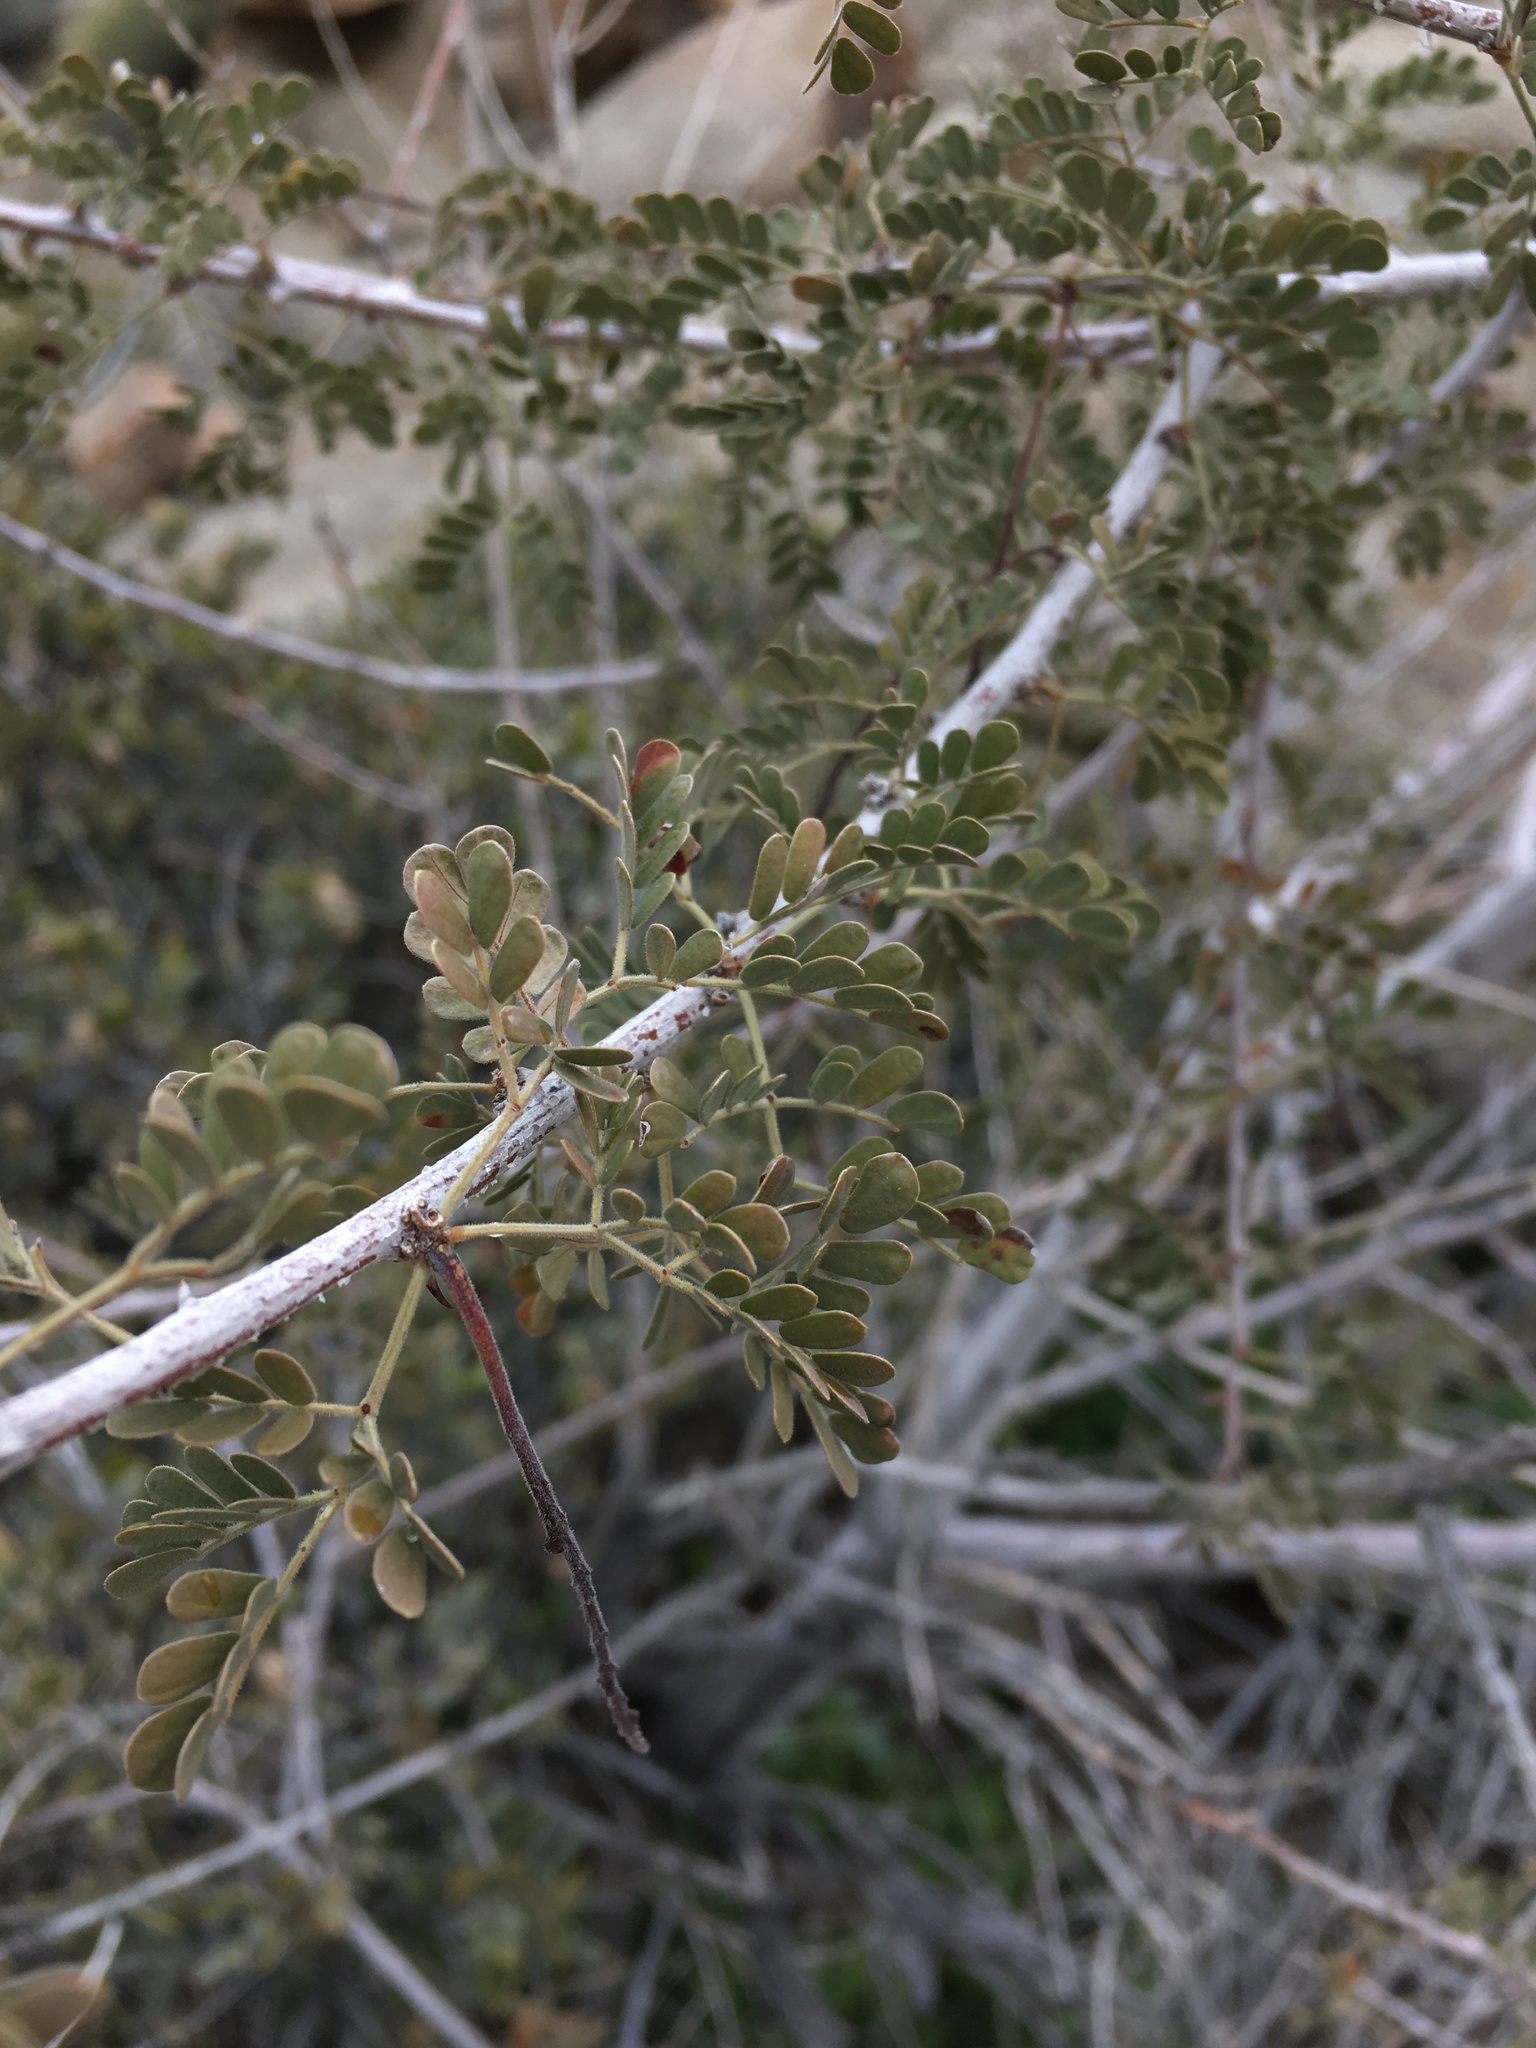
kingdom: Plantae
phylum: Tracheophyta
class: Magnoliopsida
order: Fabales
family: Fabaceae
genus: Senegalia
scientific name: Senegalia greggii
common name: Texas-mimosa
